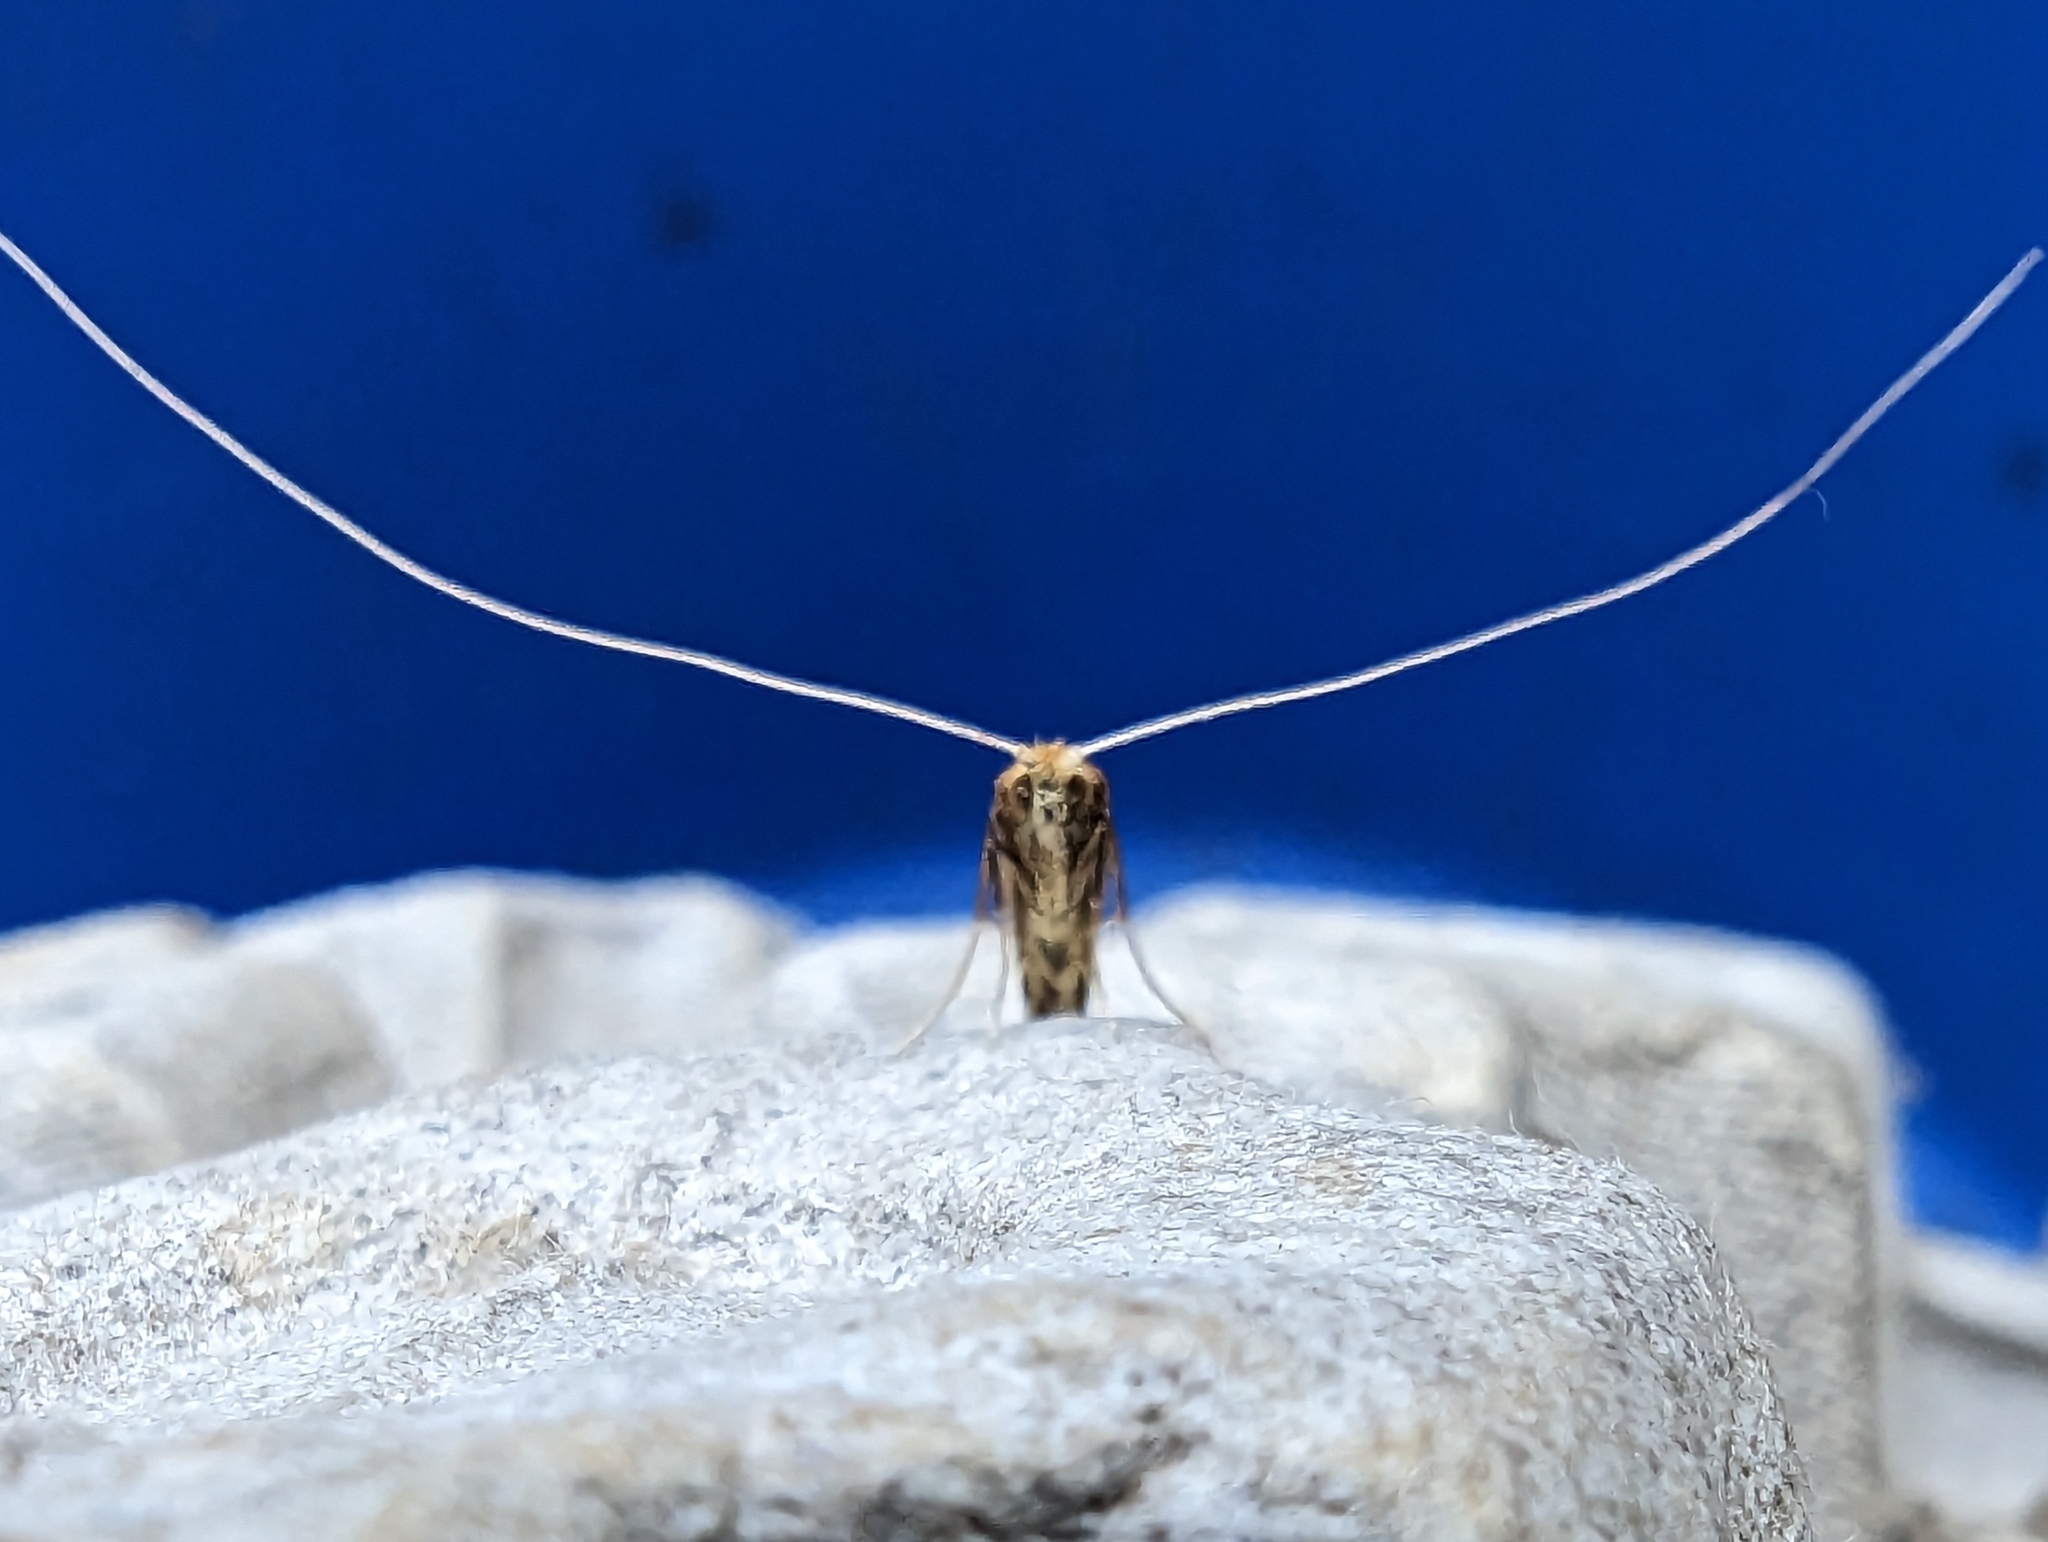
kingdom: Animalia
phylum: Arthropoda
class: Insecta
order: Lepidoptera
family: Adelidae
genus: Nematopogon
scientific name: Nematopogon swammerdamella
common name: Large long-horn
